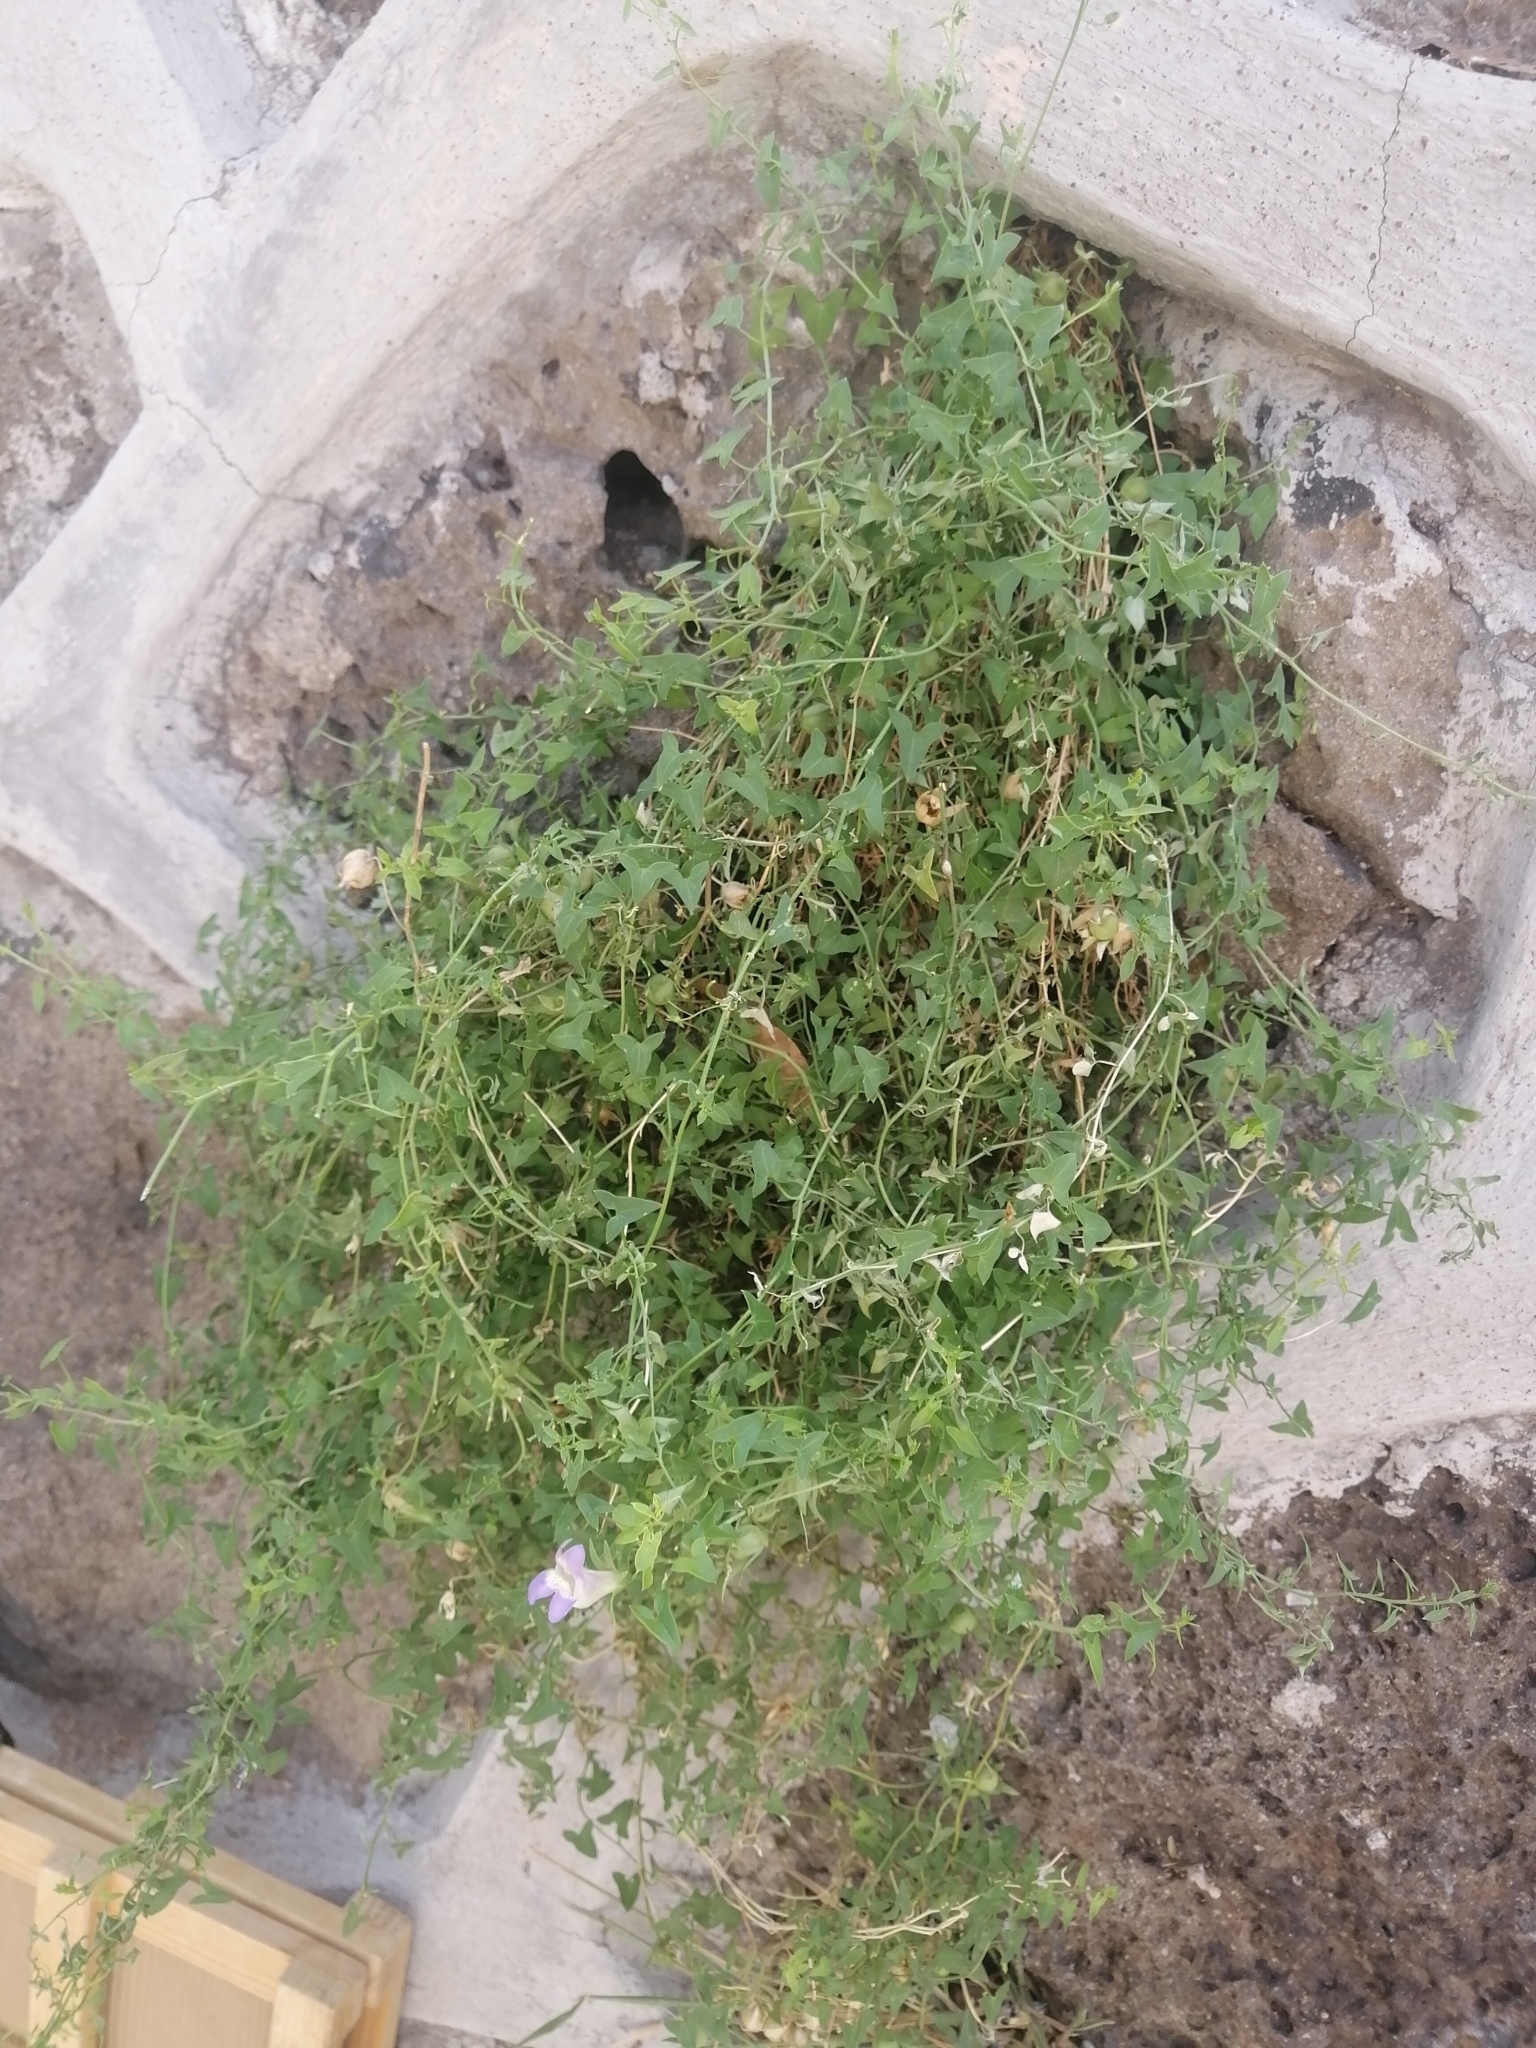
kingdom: Plantae
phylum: Tracheophyta
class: Magnoliopsida
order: Lamiales
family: Plantaginaceae
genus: Maurandella
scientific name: Maurandella antirrhiniflora
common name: Violet twining-snapdragon
